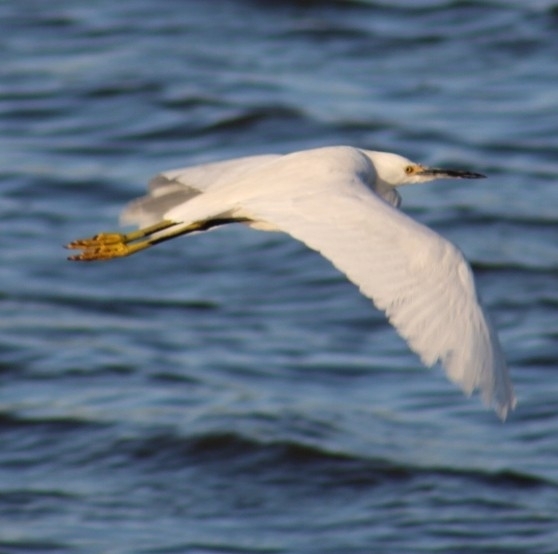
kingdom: Animalia
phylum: Chordata
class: Aves
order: Pelecaniformes
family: Ardeidae
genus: Egretta
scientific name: Egretta thula
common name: Snowy egret
